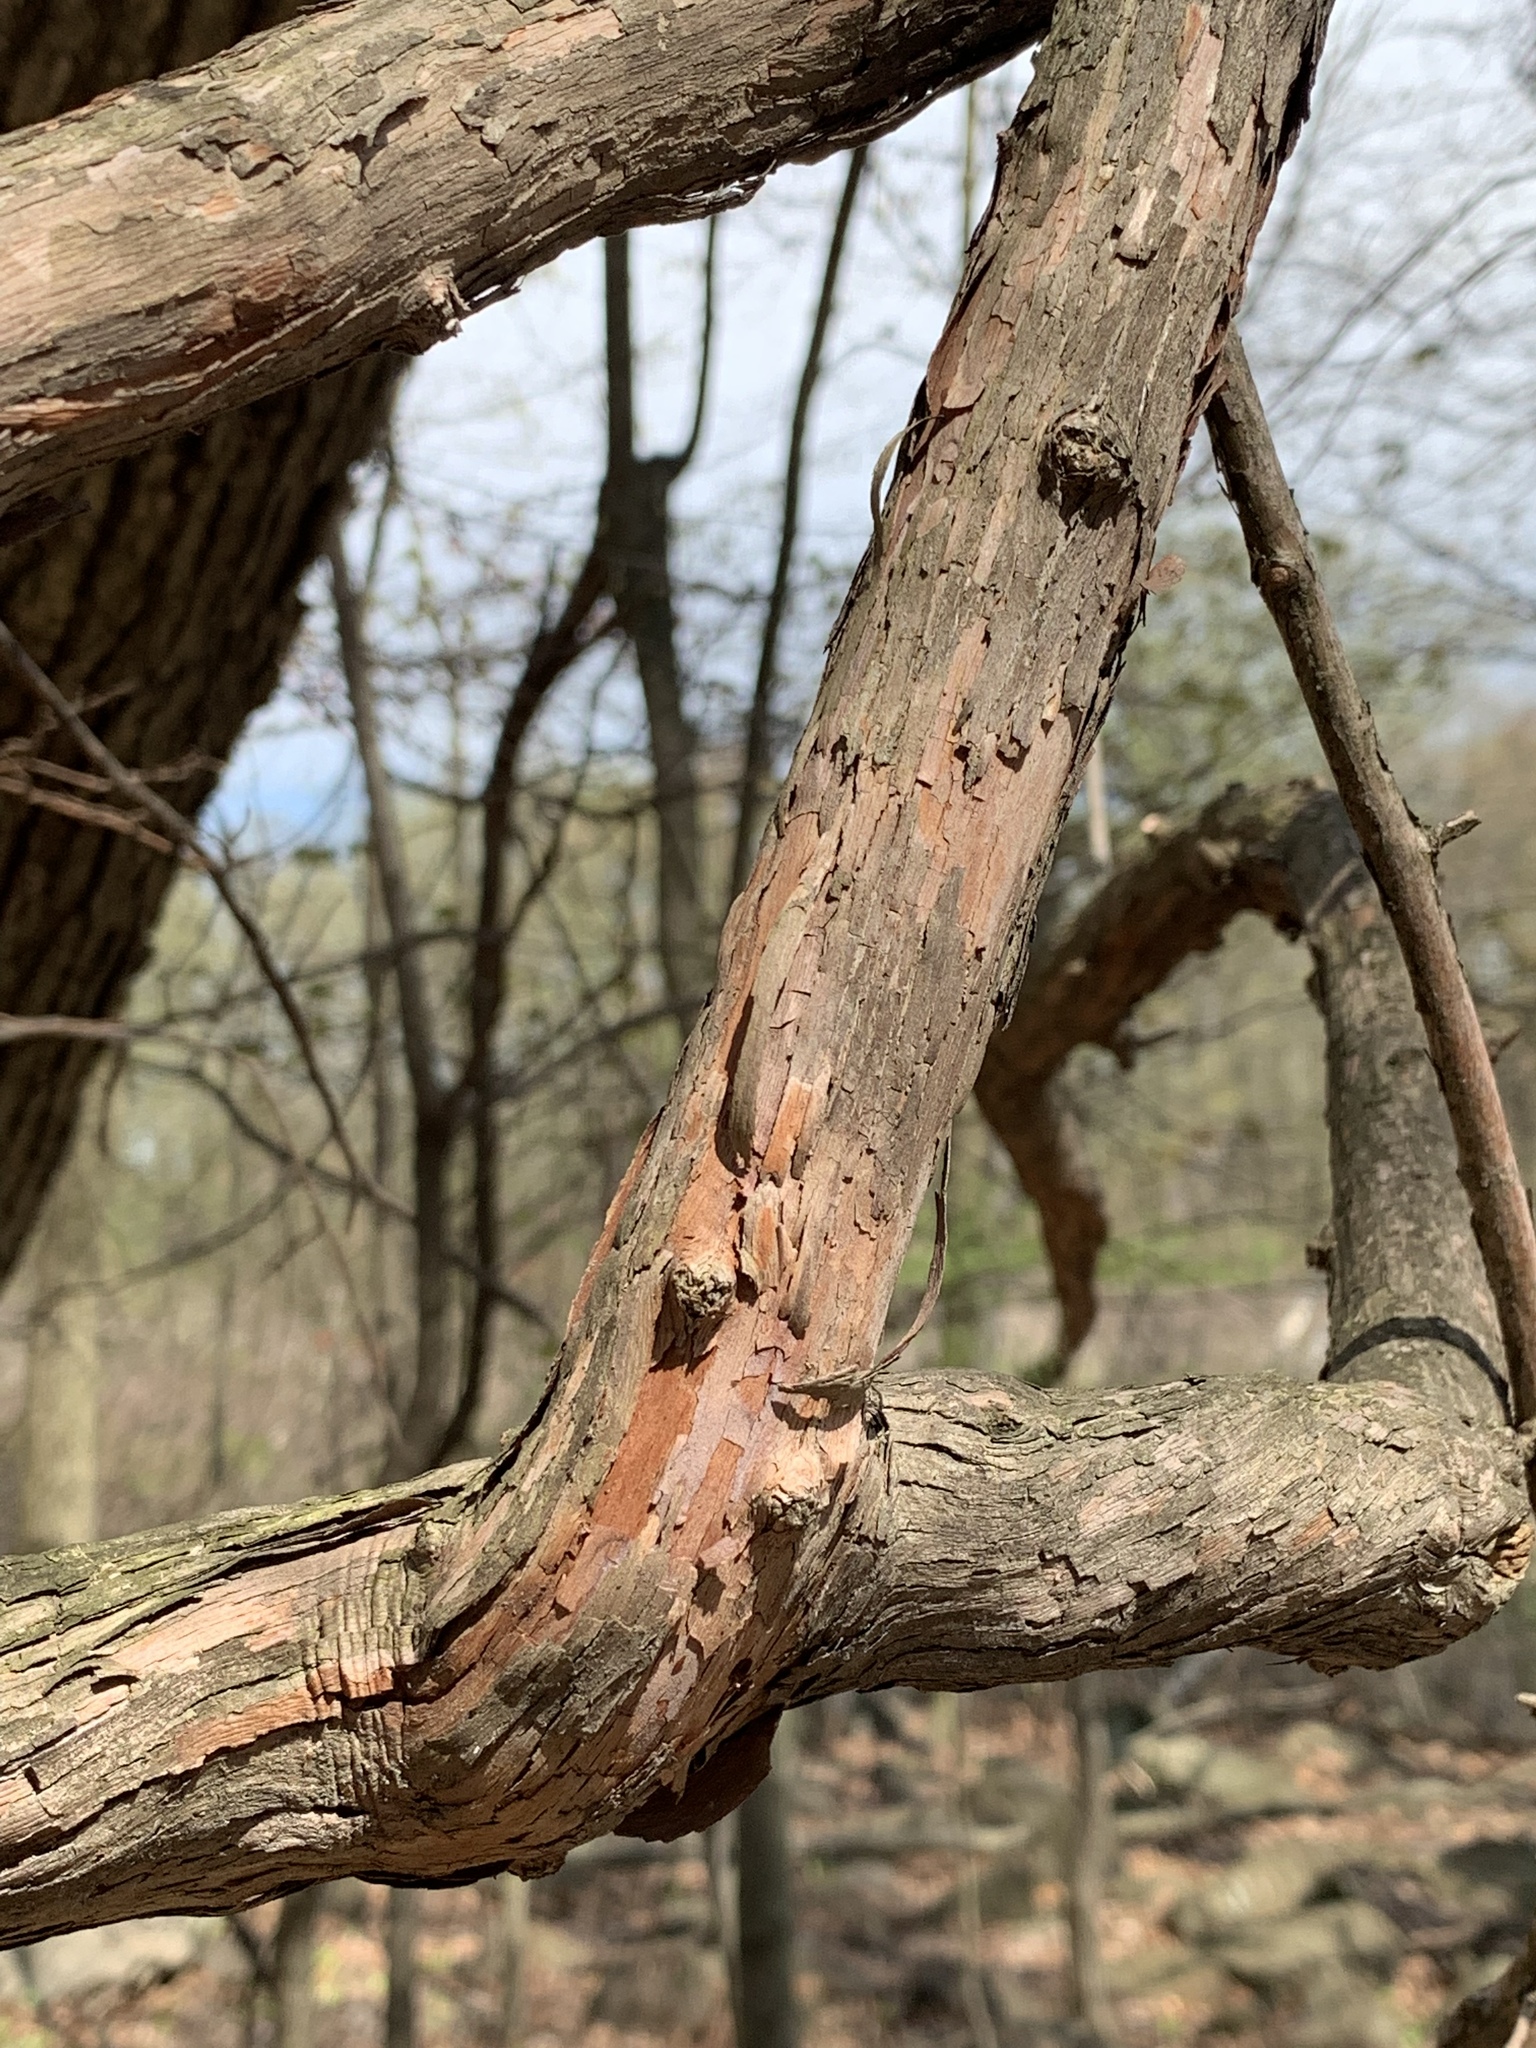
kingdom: Plantae
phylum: Tracheophyta
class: Magnoliopsida
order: Vitales
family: Vitaceae
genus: Vitis
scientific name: Vitis
